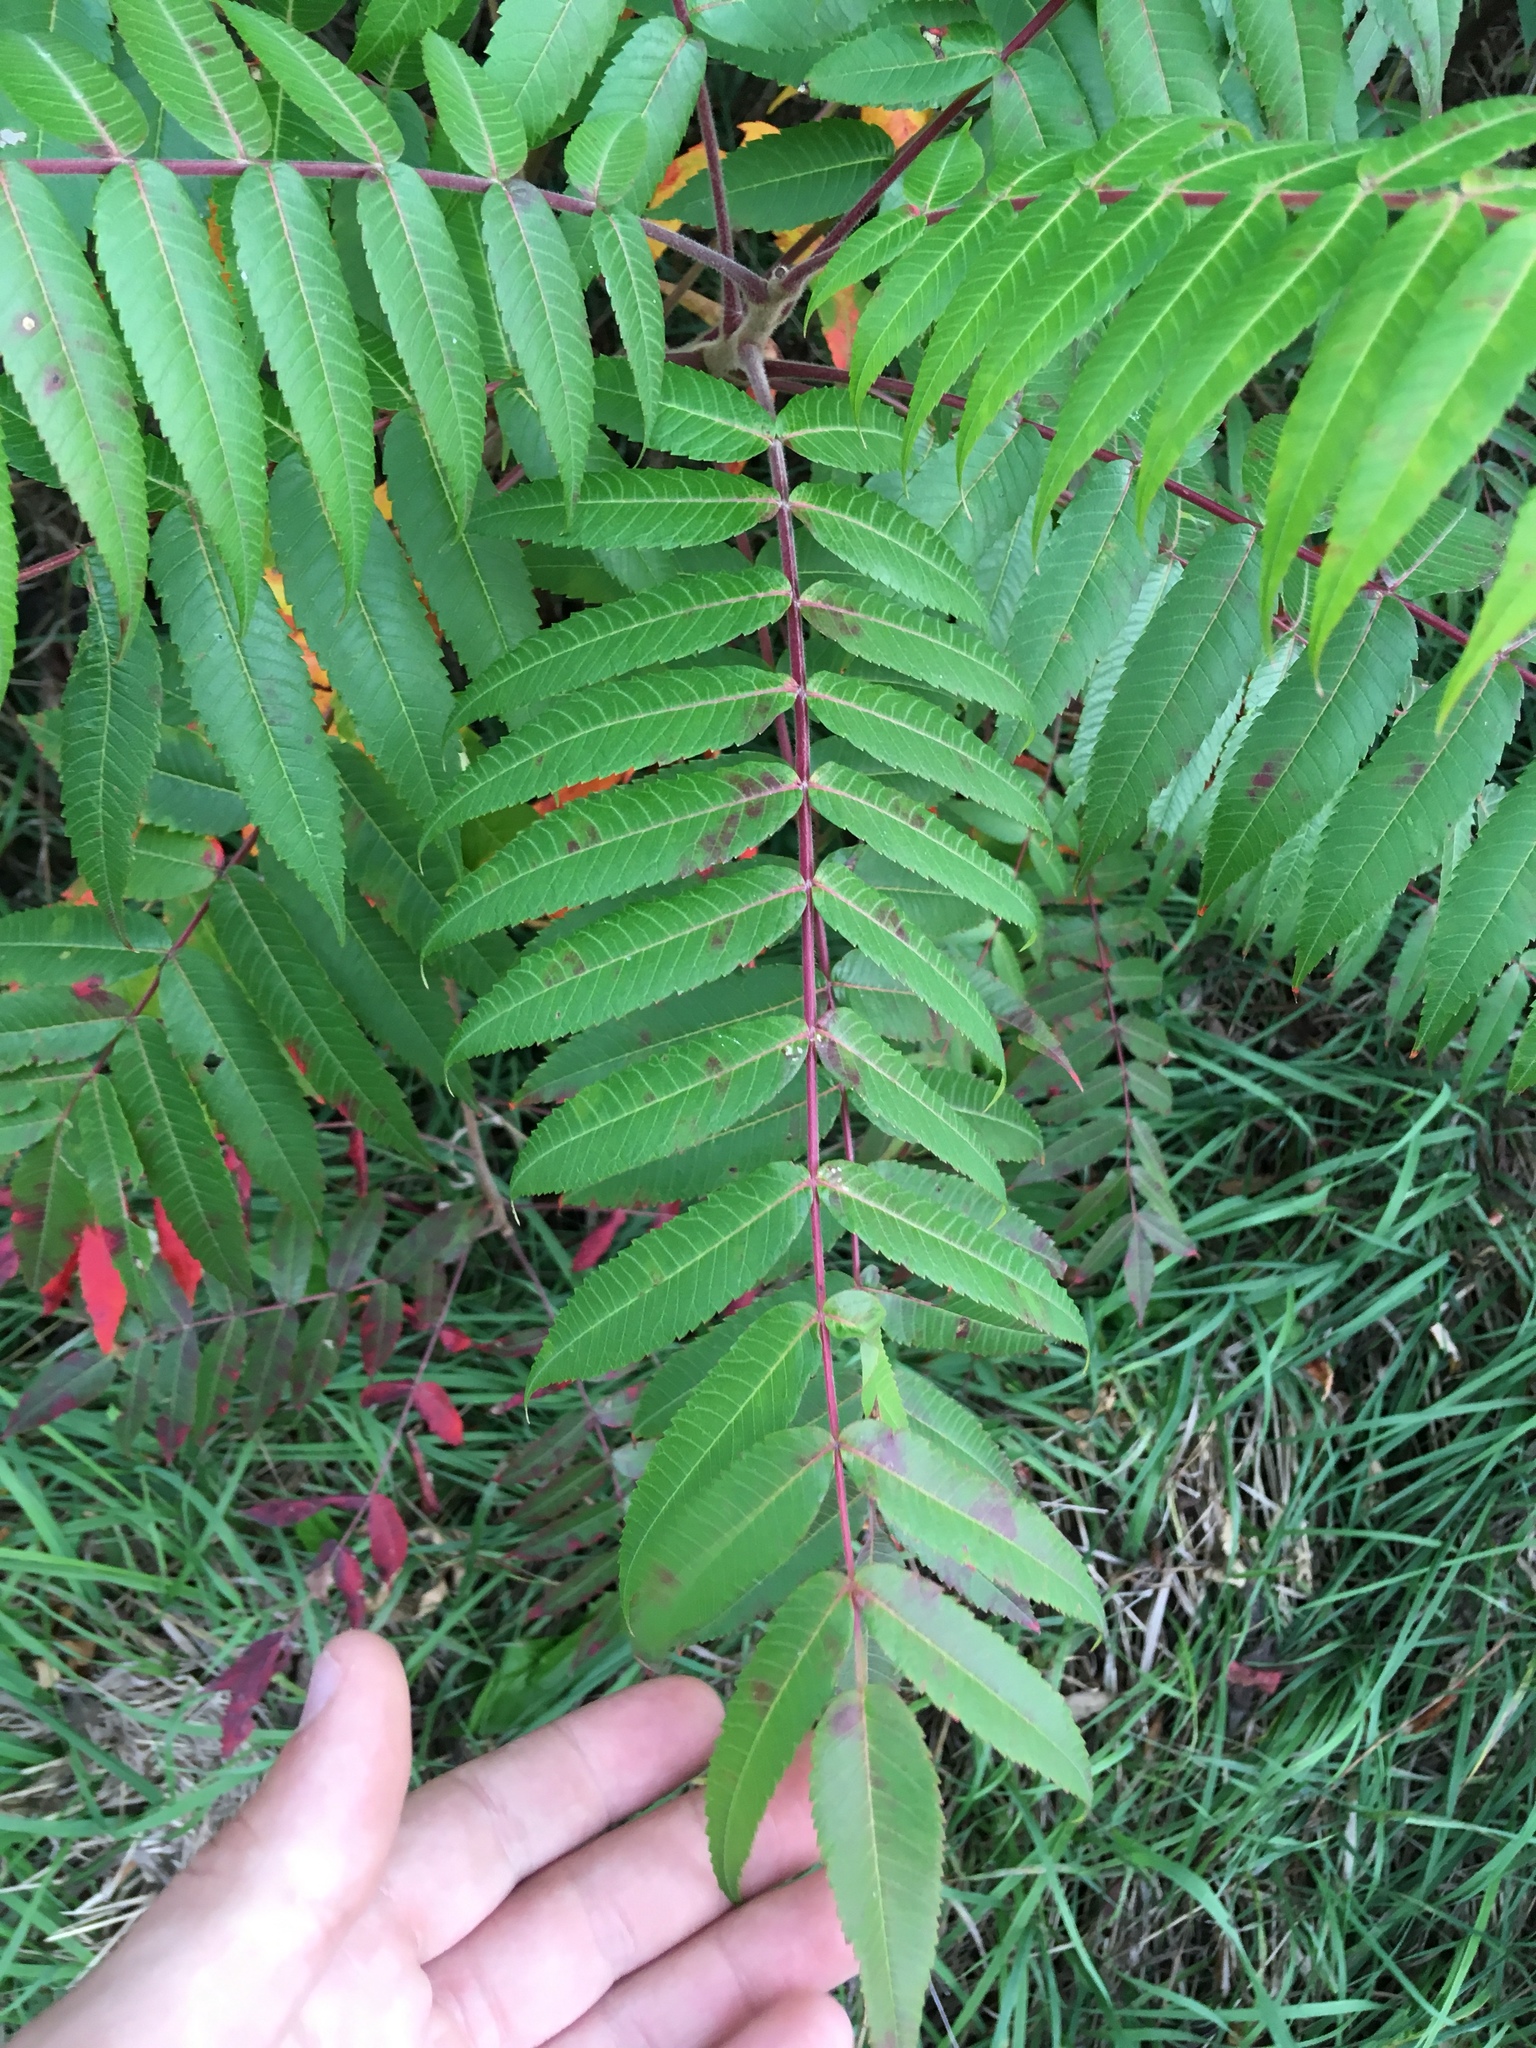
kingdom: Plantae
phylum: Tracheophyta
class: Magnoliopsida
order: Sapindales
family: Anacardiaceae
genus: Rhus
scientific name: Rhus typhina
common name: Staghorn sumac
